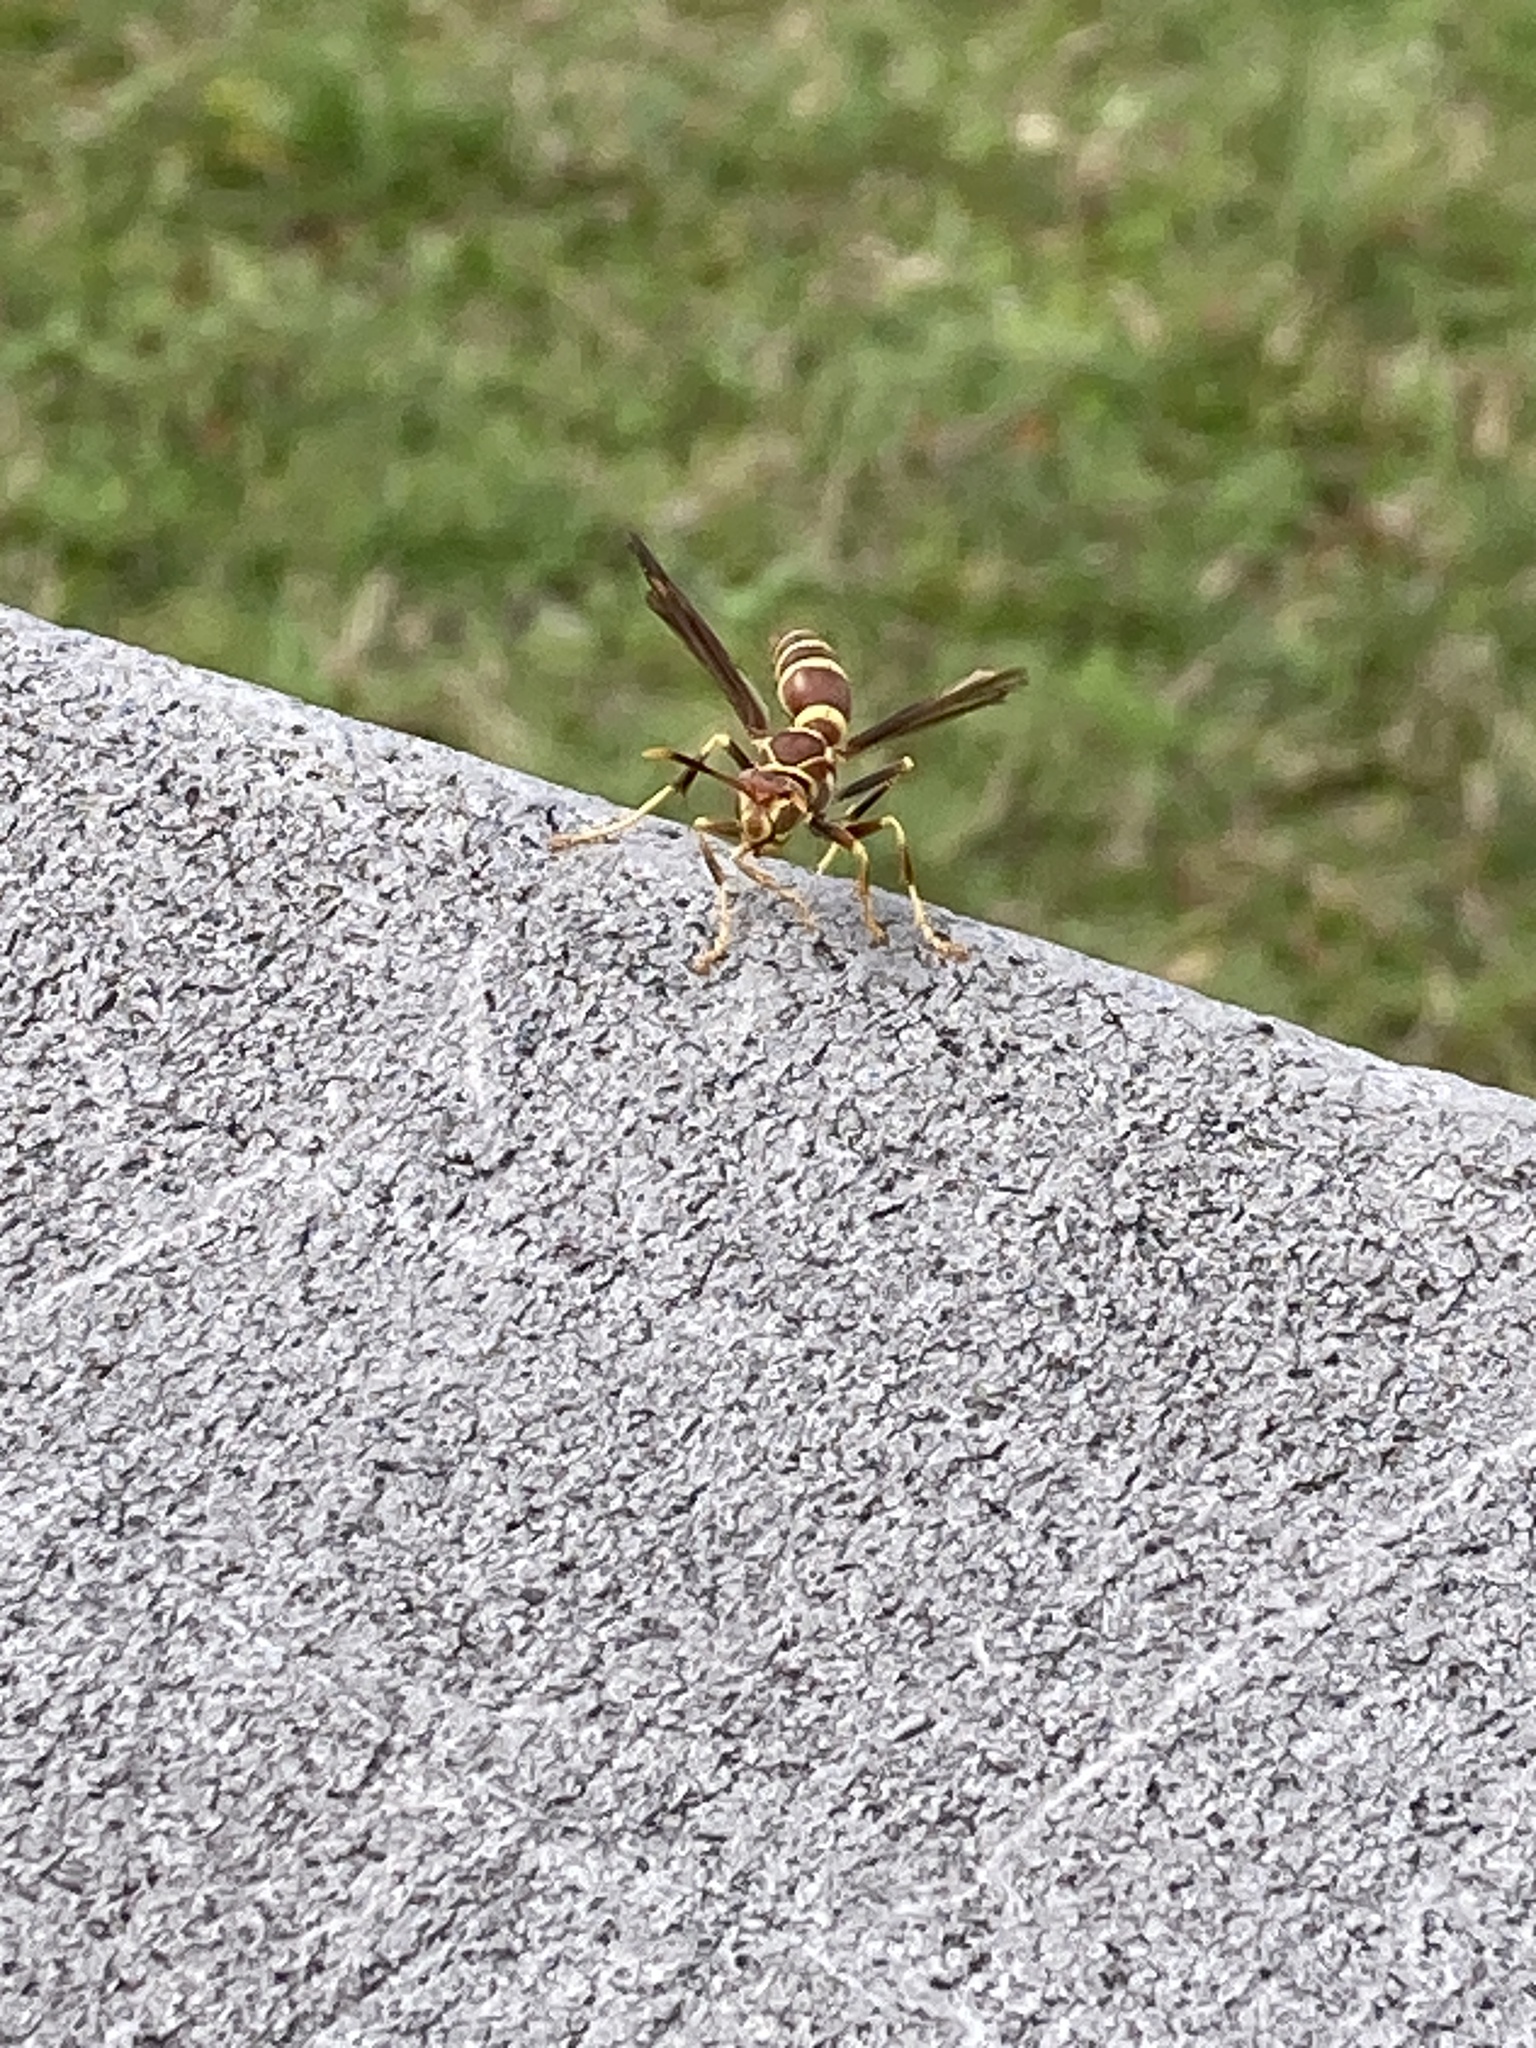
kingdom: Animalia
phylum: Arthropoda
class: Insecta
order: Hymenoptera
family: Eumenidae
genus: Polistes
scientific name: Polistes exclamans
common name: Paper wasp
